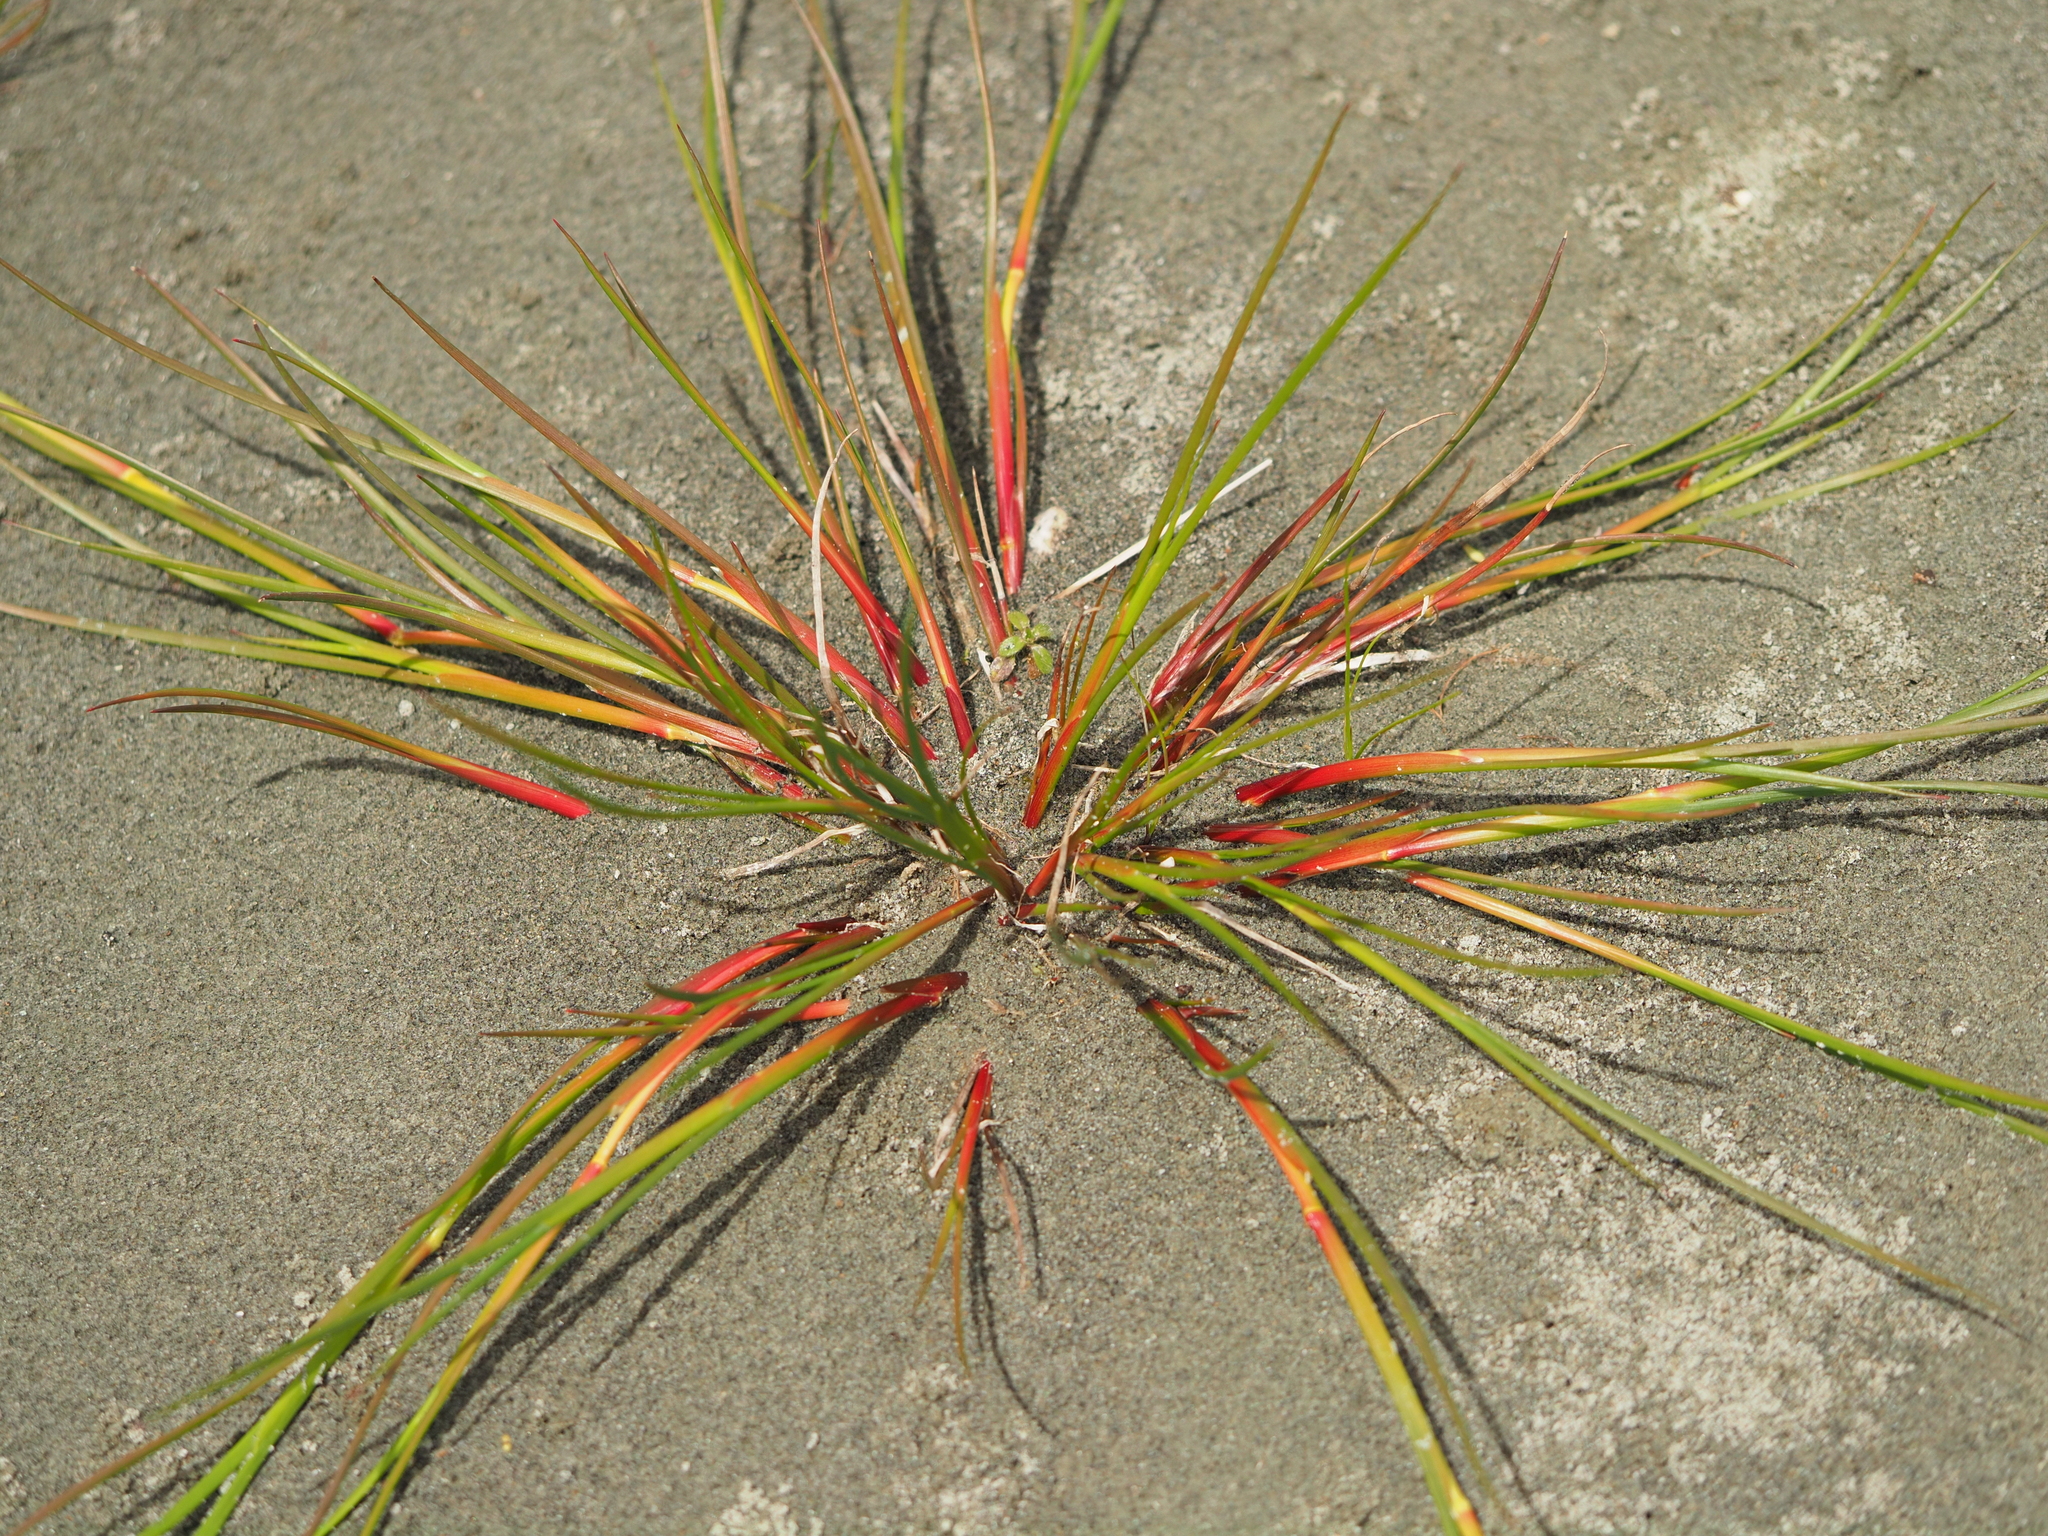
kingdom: Plantae
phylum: Tracheophyta
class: Liliopsida
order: Poales
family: Juncaceae
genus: Juncus
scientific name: Juncus articulatus
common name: Jointed rush
